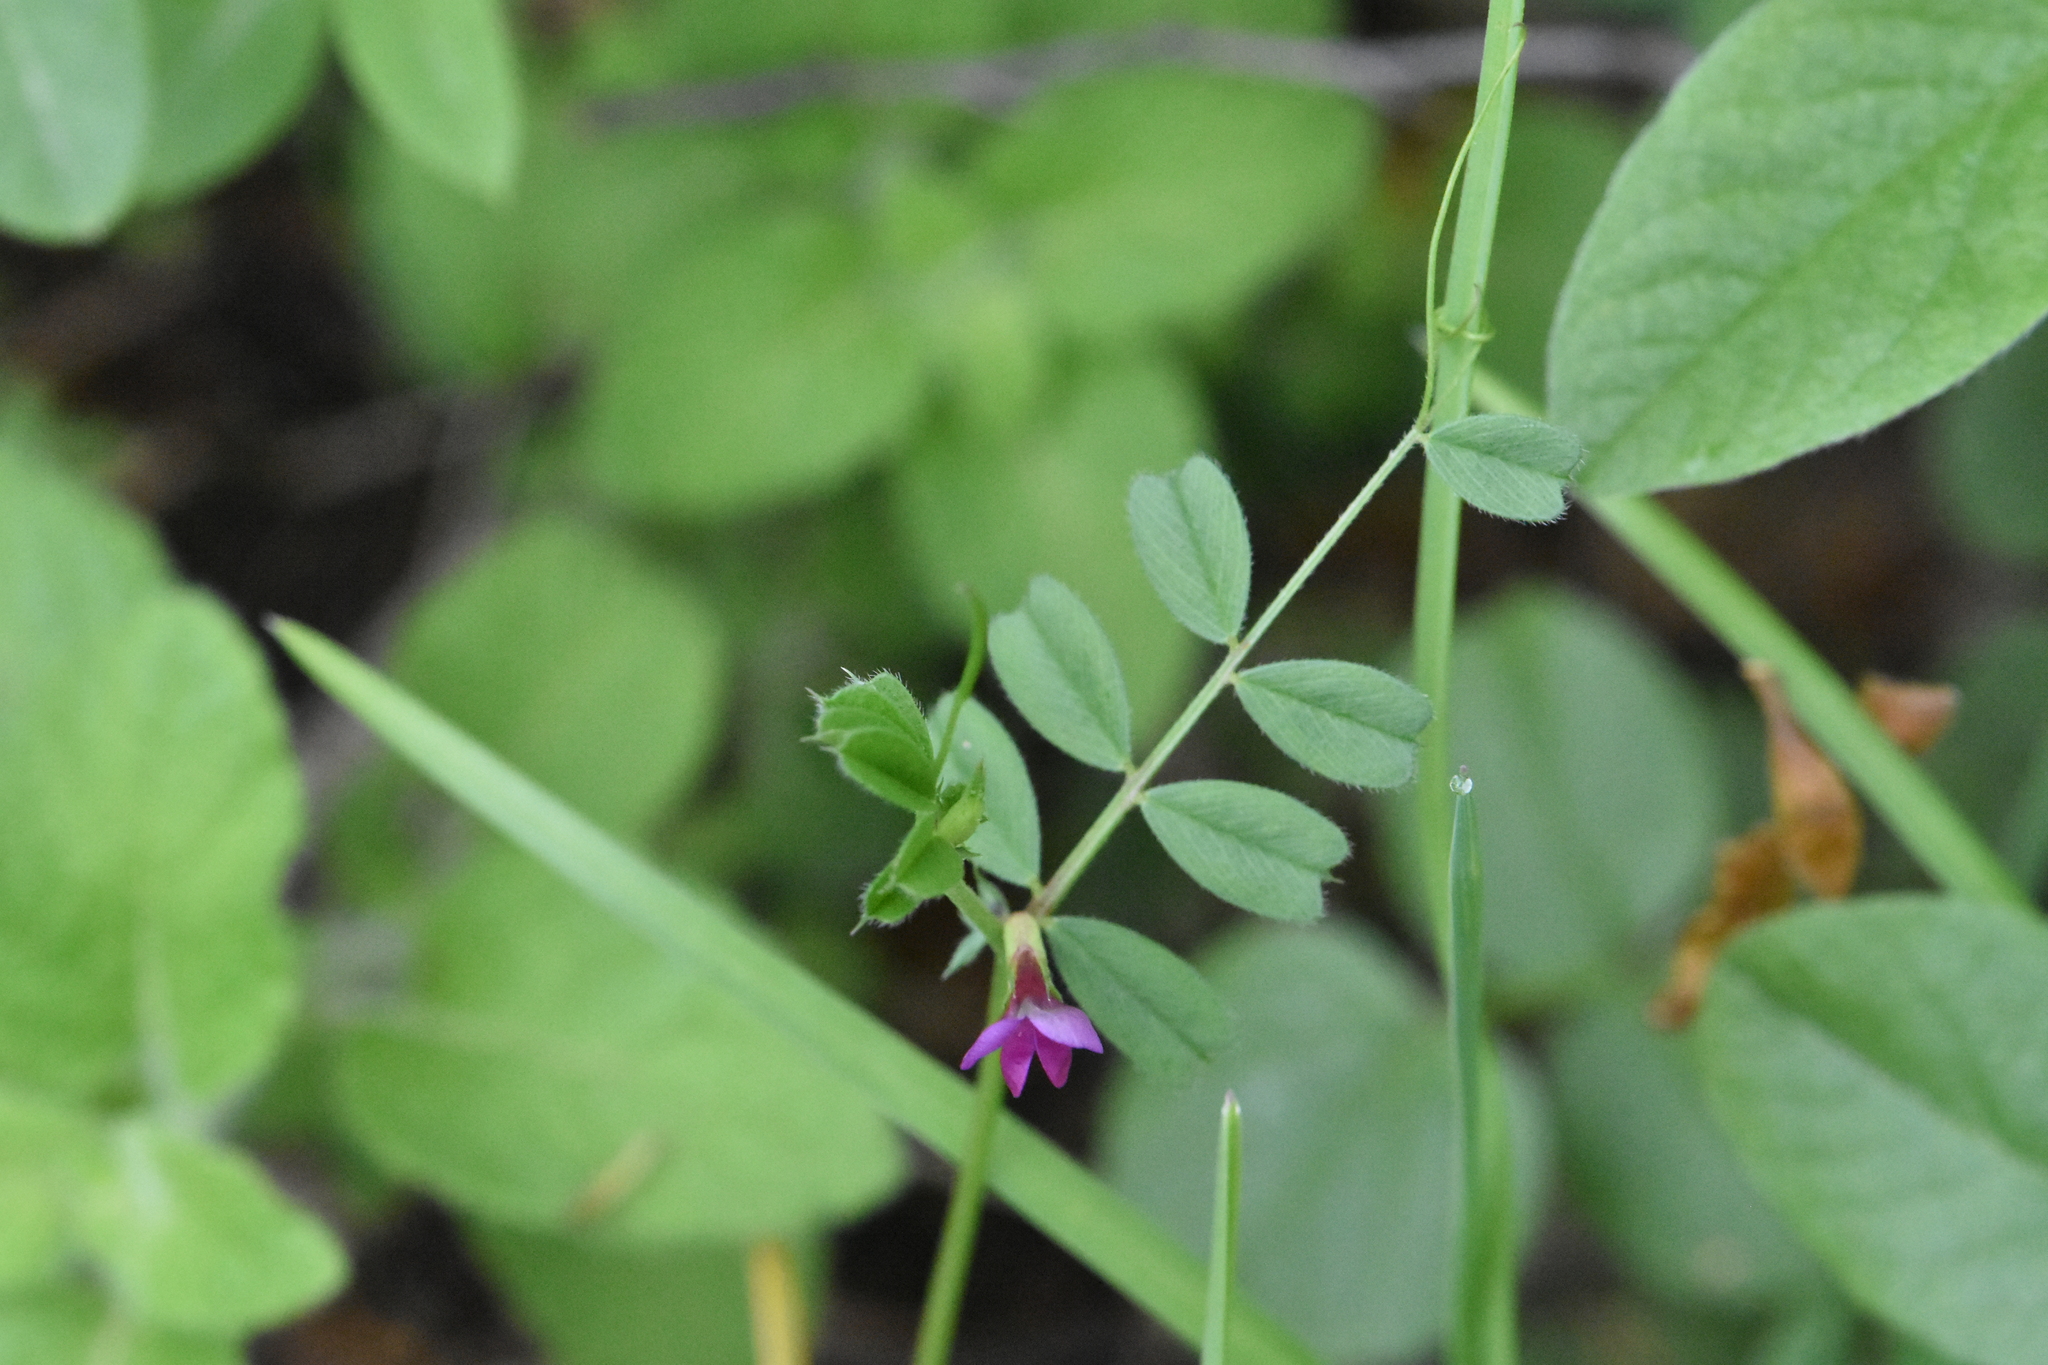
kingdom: Plantae
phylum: Tracheophyta
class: Magnoliopsida
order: Fabales
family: Fabaceae
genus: Vicia
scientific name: Vicia sativa
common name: Garden vetch
